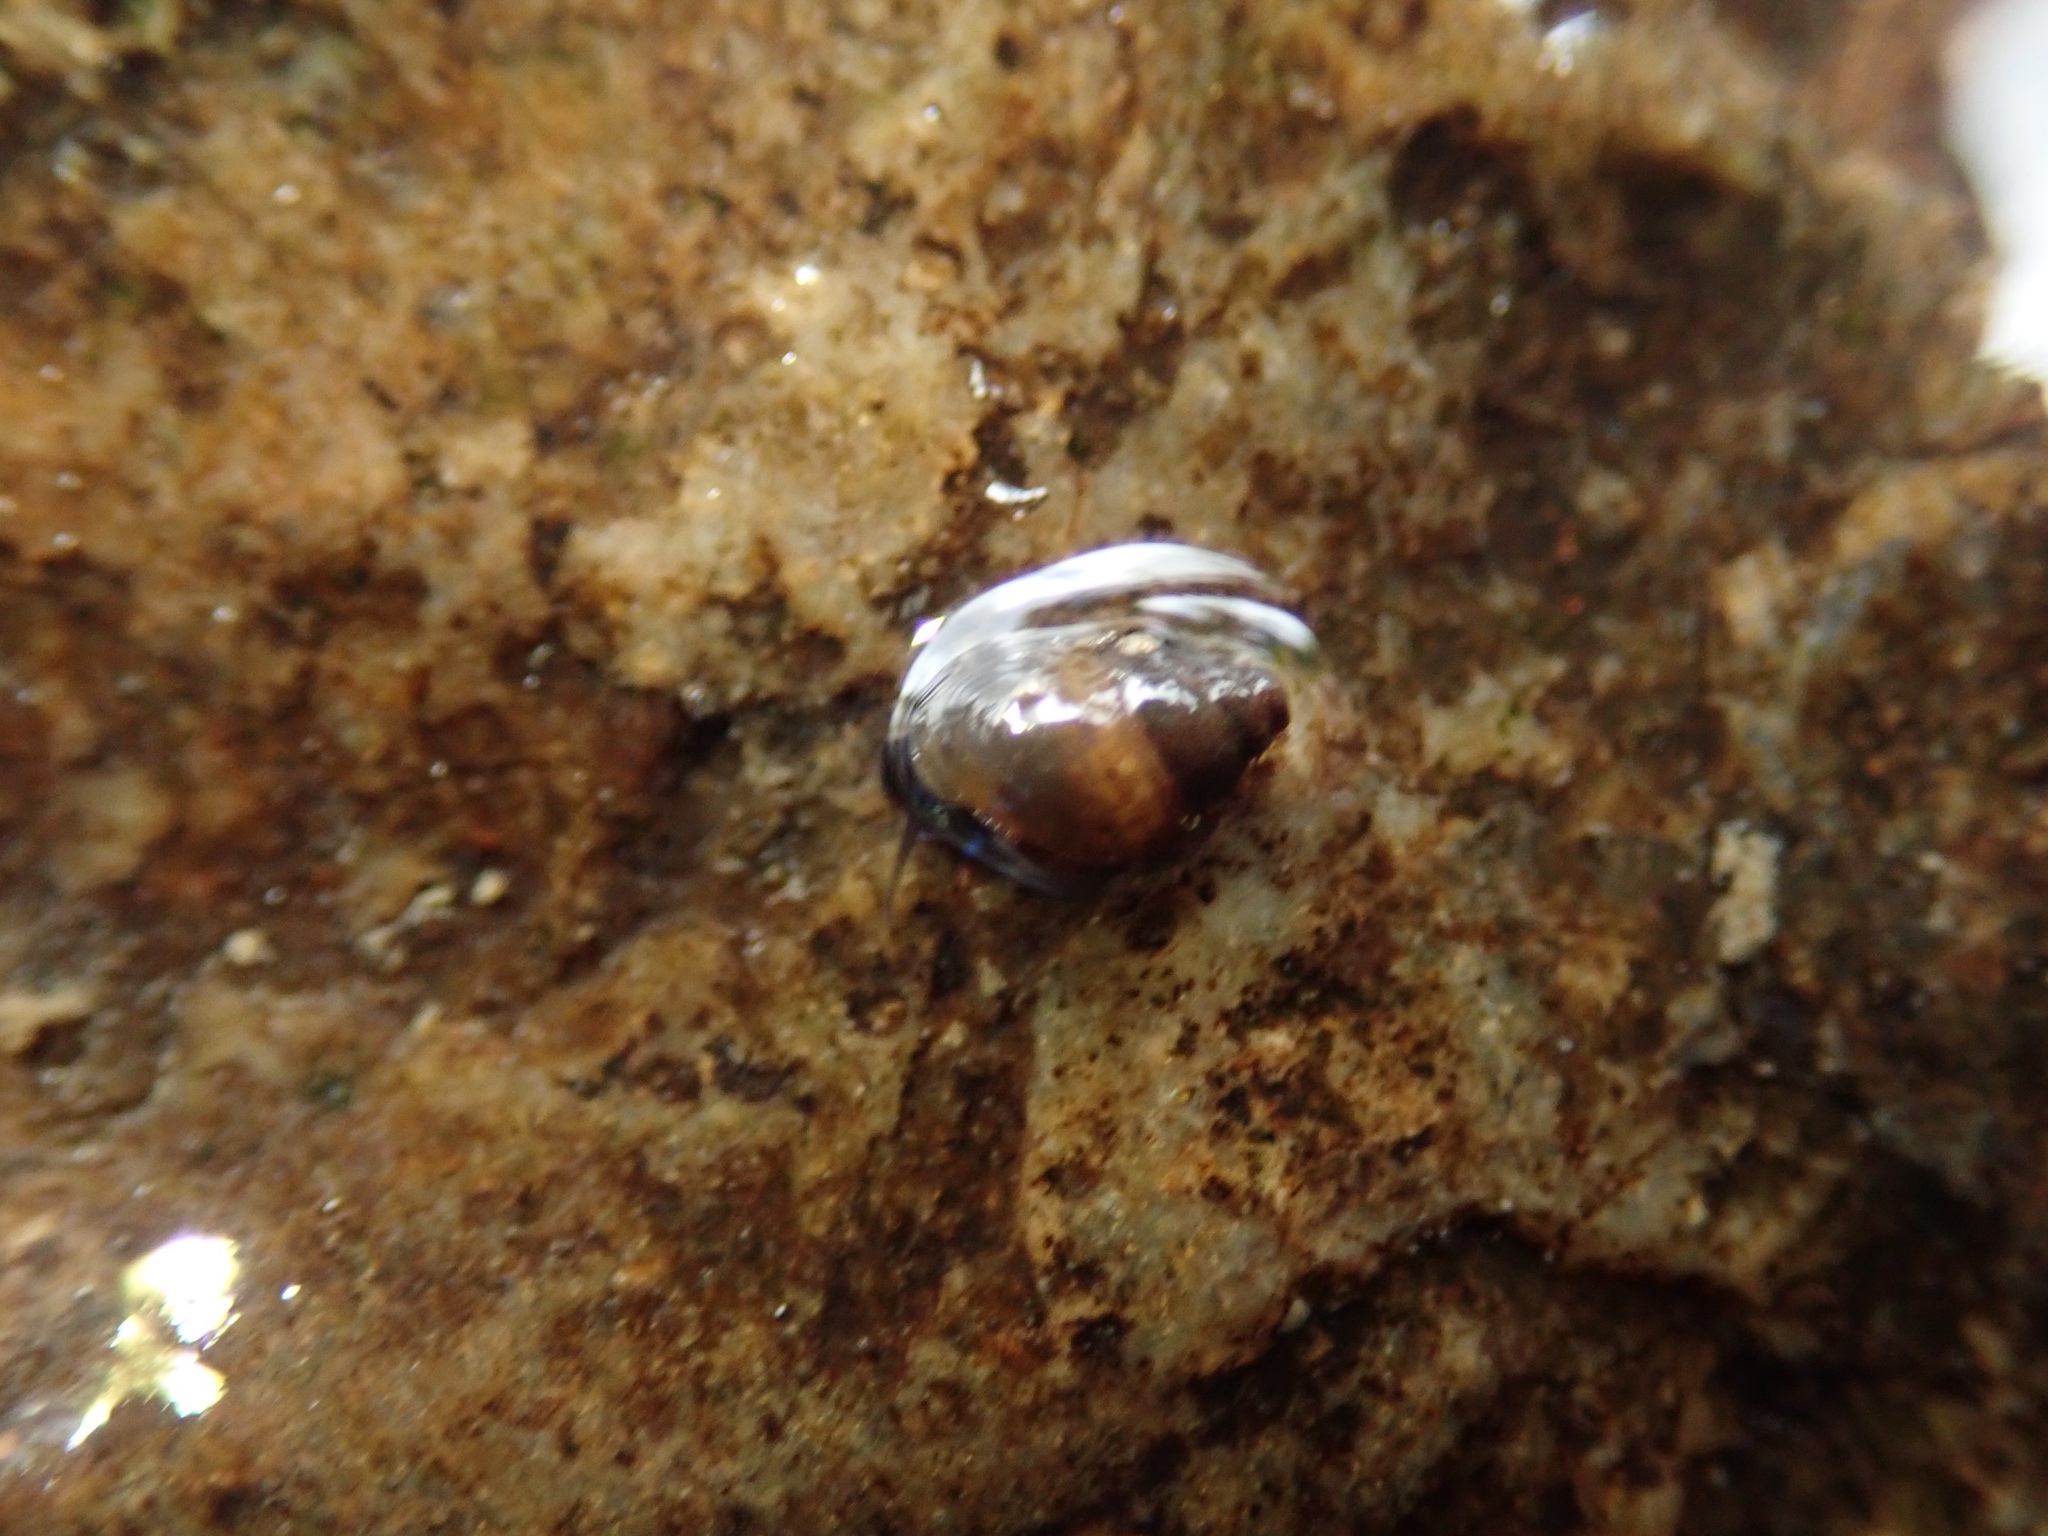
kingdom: Animalia
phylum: Mollusca
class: Gastropoda
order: Littorinimorpha
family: Tateidae
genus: Potamopyrgus
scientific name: Potamopyrgus antipodarum
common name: Jenkins' spire snail
